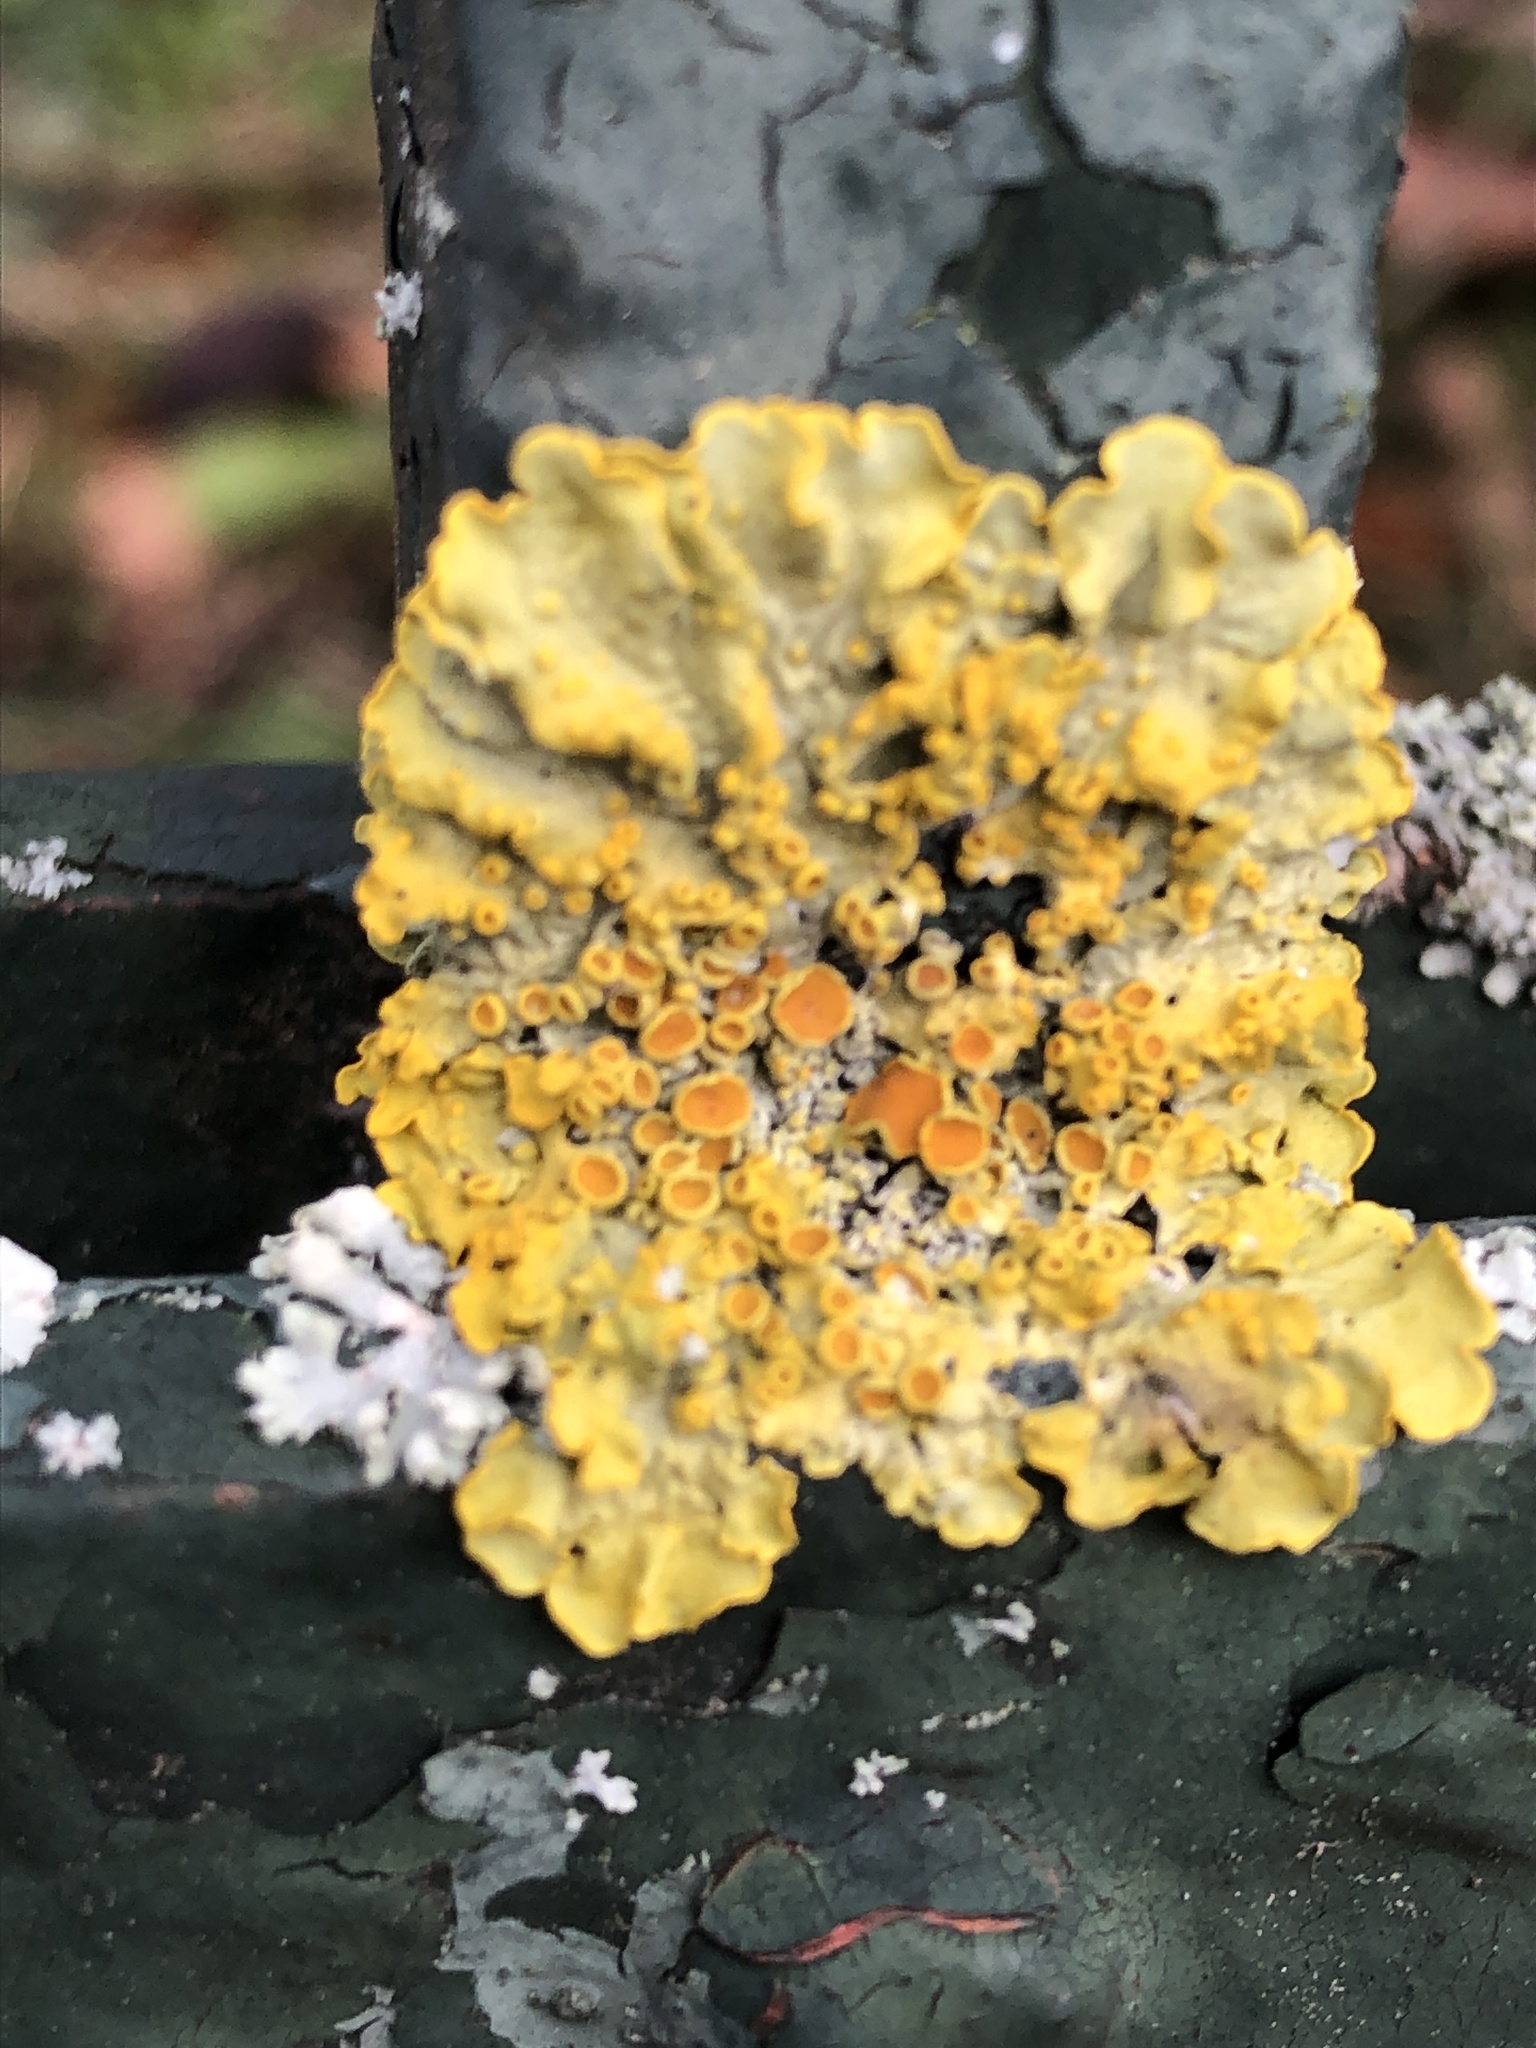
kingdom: Fungi
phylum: Ascomycota
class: Lecanoromycetes
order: Teloschistales
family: Teloschistaceae
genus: Xanthoria
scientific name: Xanthoria parietina
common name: Common orange lichen
